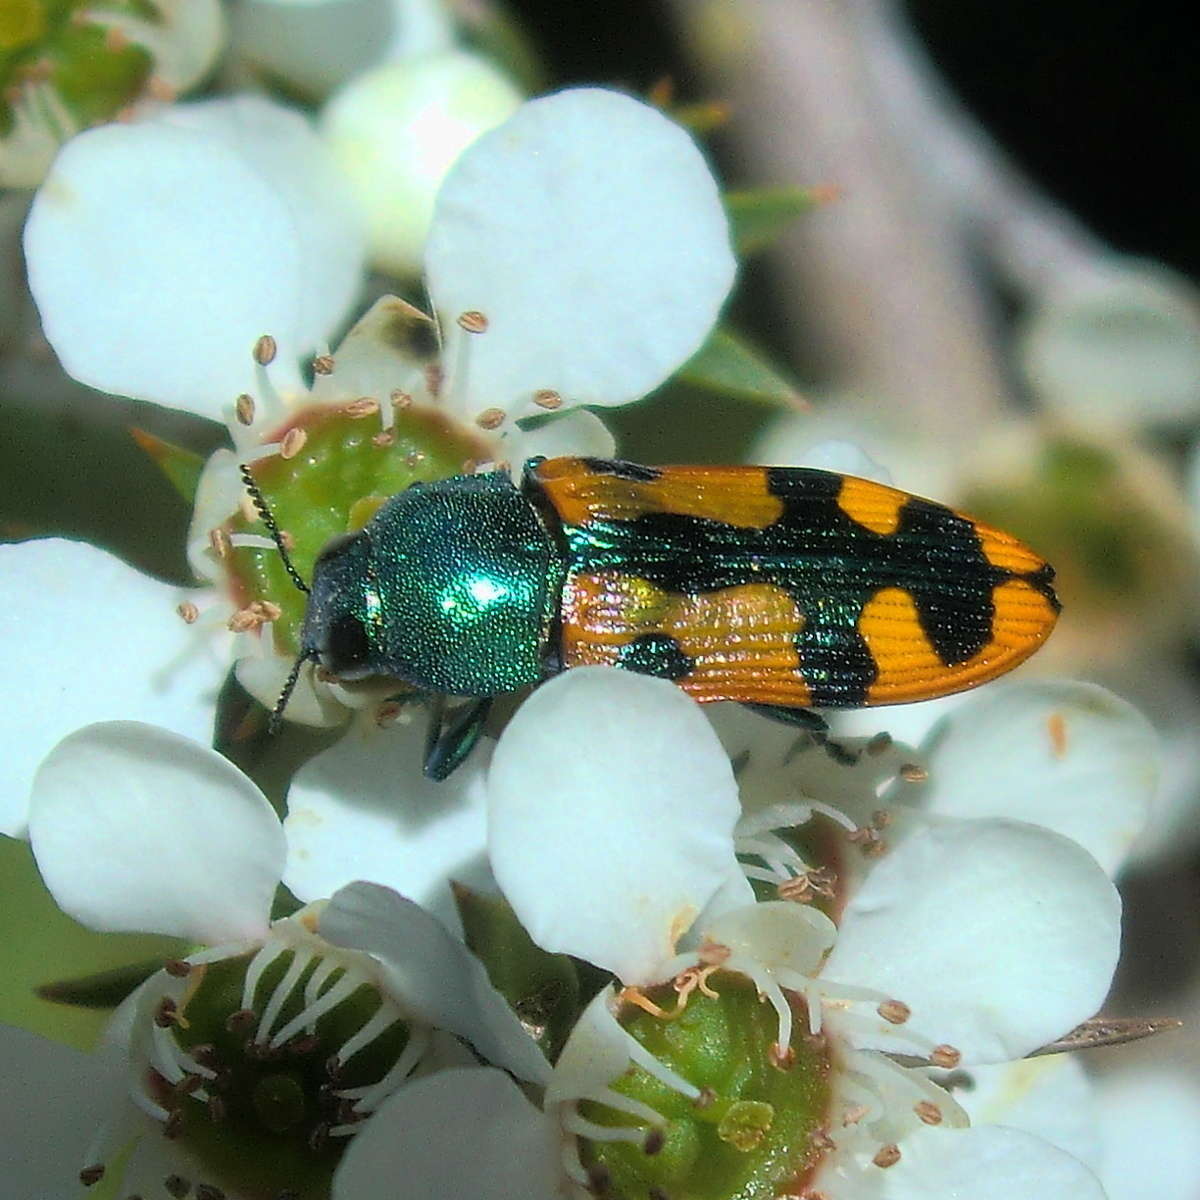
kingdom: Animalia
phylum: Arthropoda
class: Insecta
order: Coleoptera
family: Buprestidae
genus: Castiarina
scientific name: Castiarina scalaris
